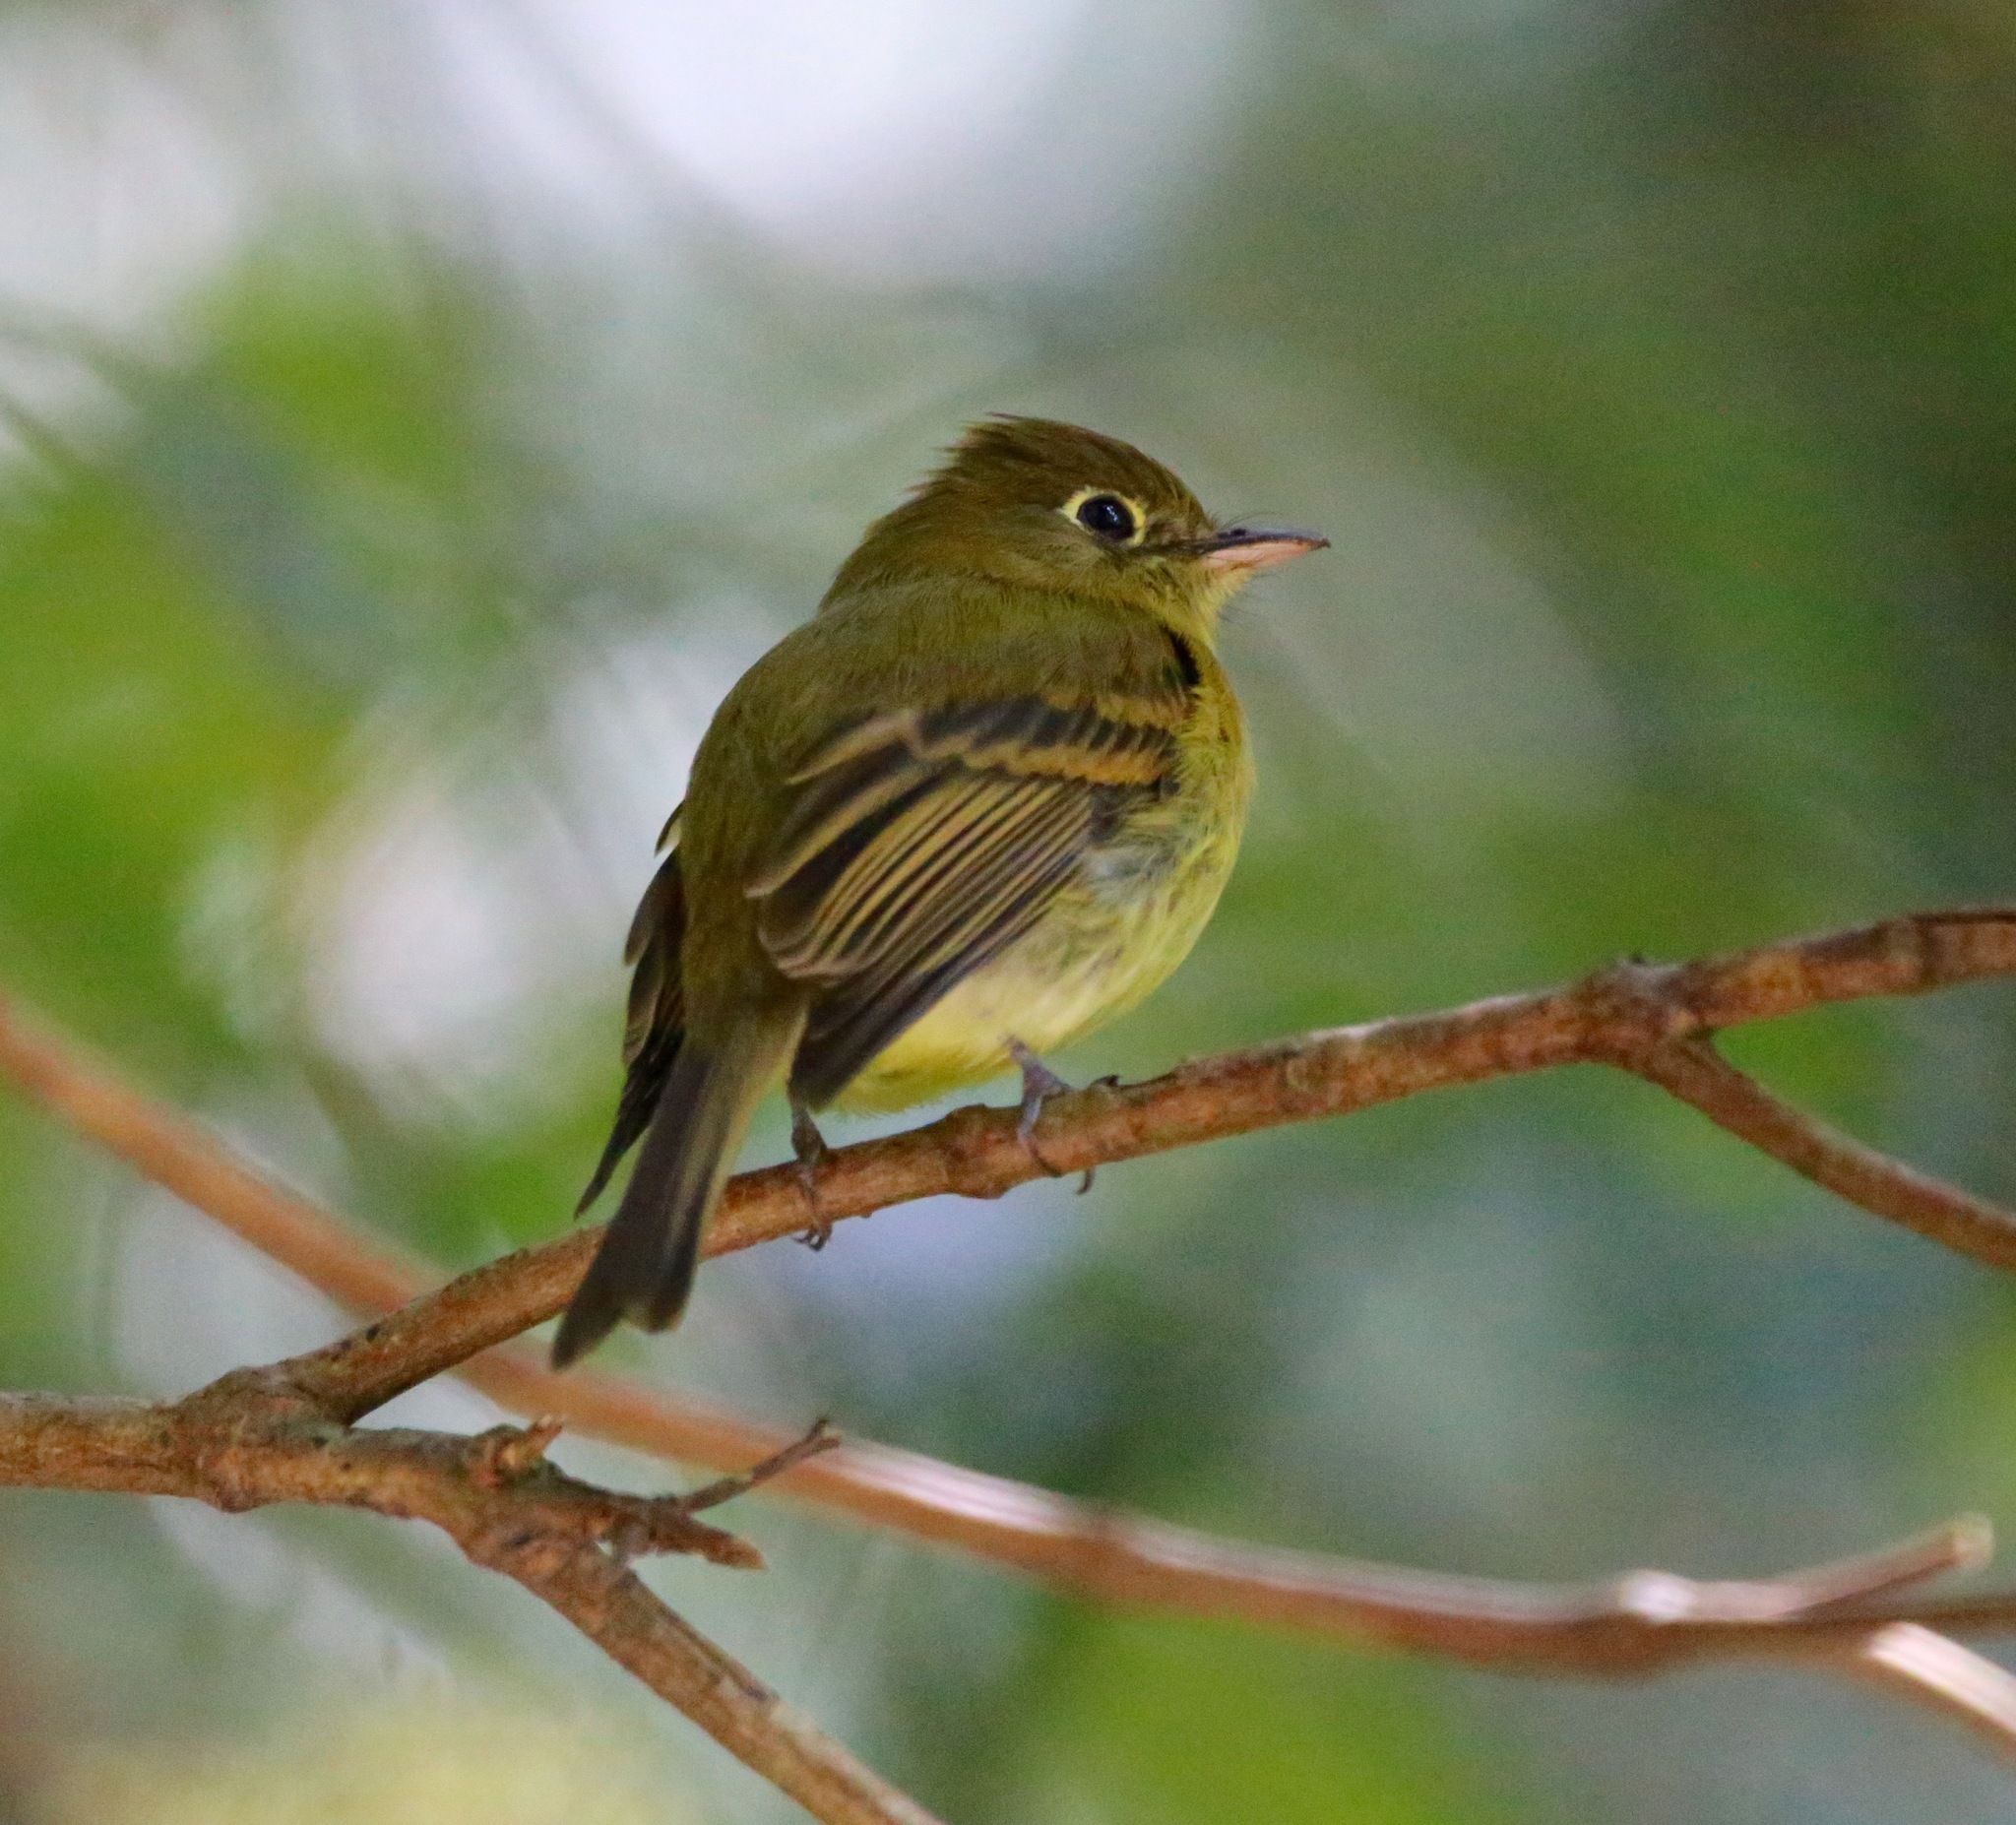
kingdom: Animalia
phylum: Chordata
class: Aves
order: Passeriformes
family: Tyrannidae
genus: Empidonax
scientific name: Empidonax flavescens
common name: Yellowish flycatcher
